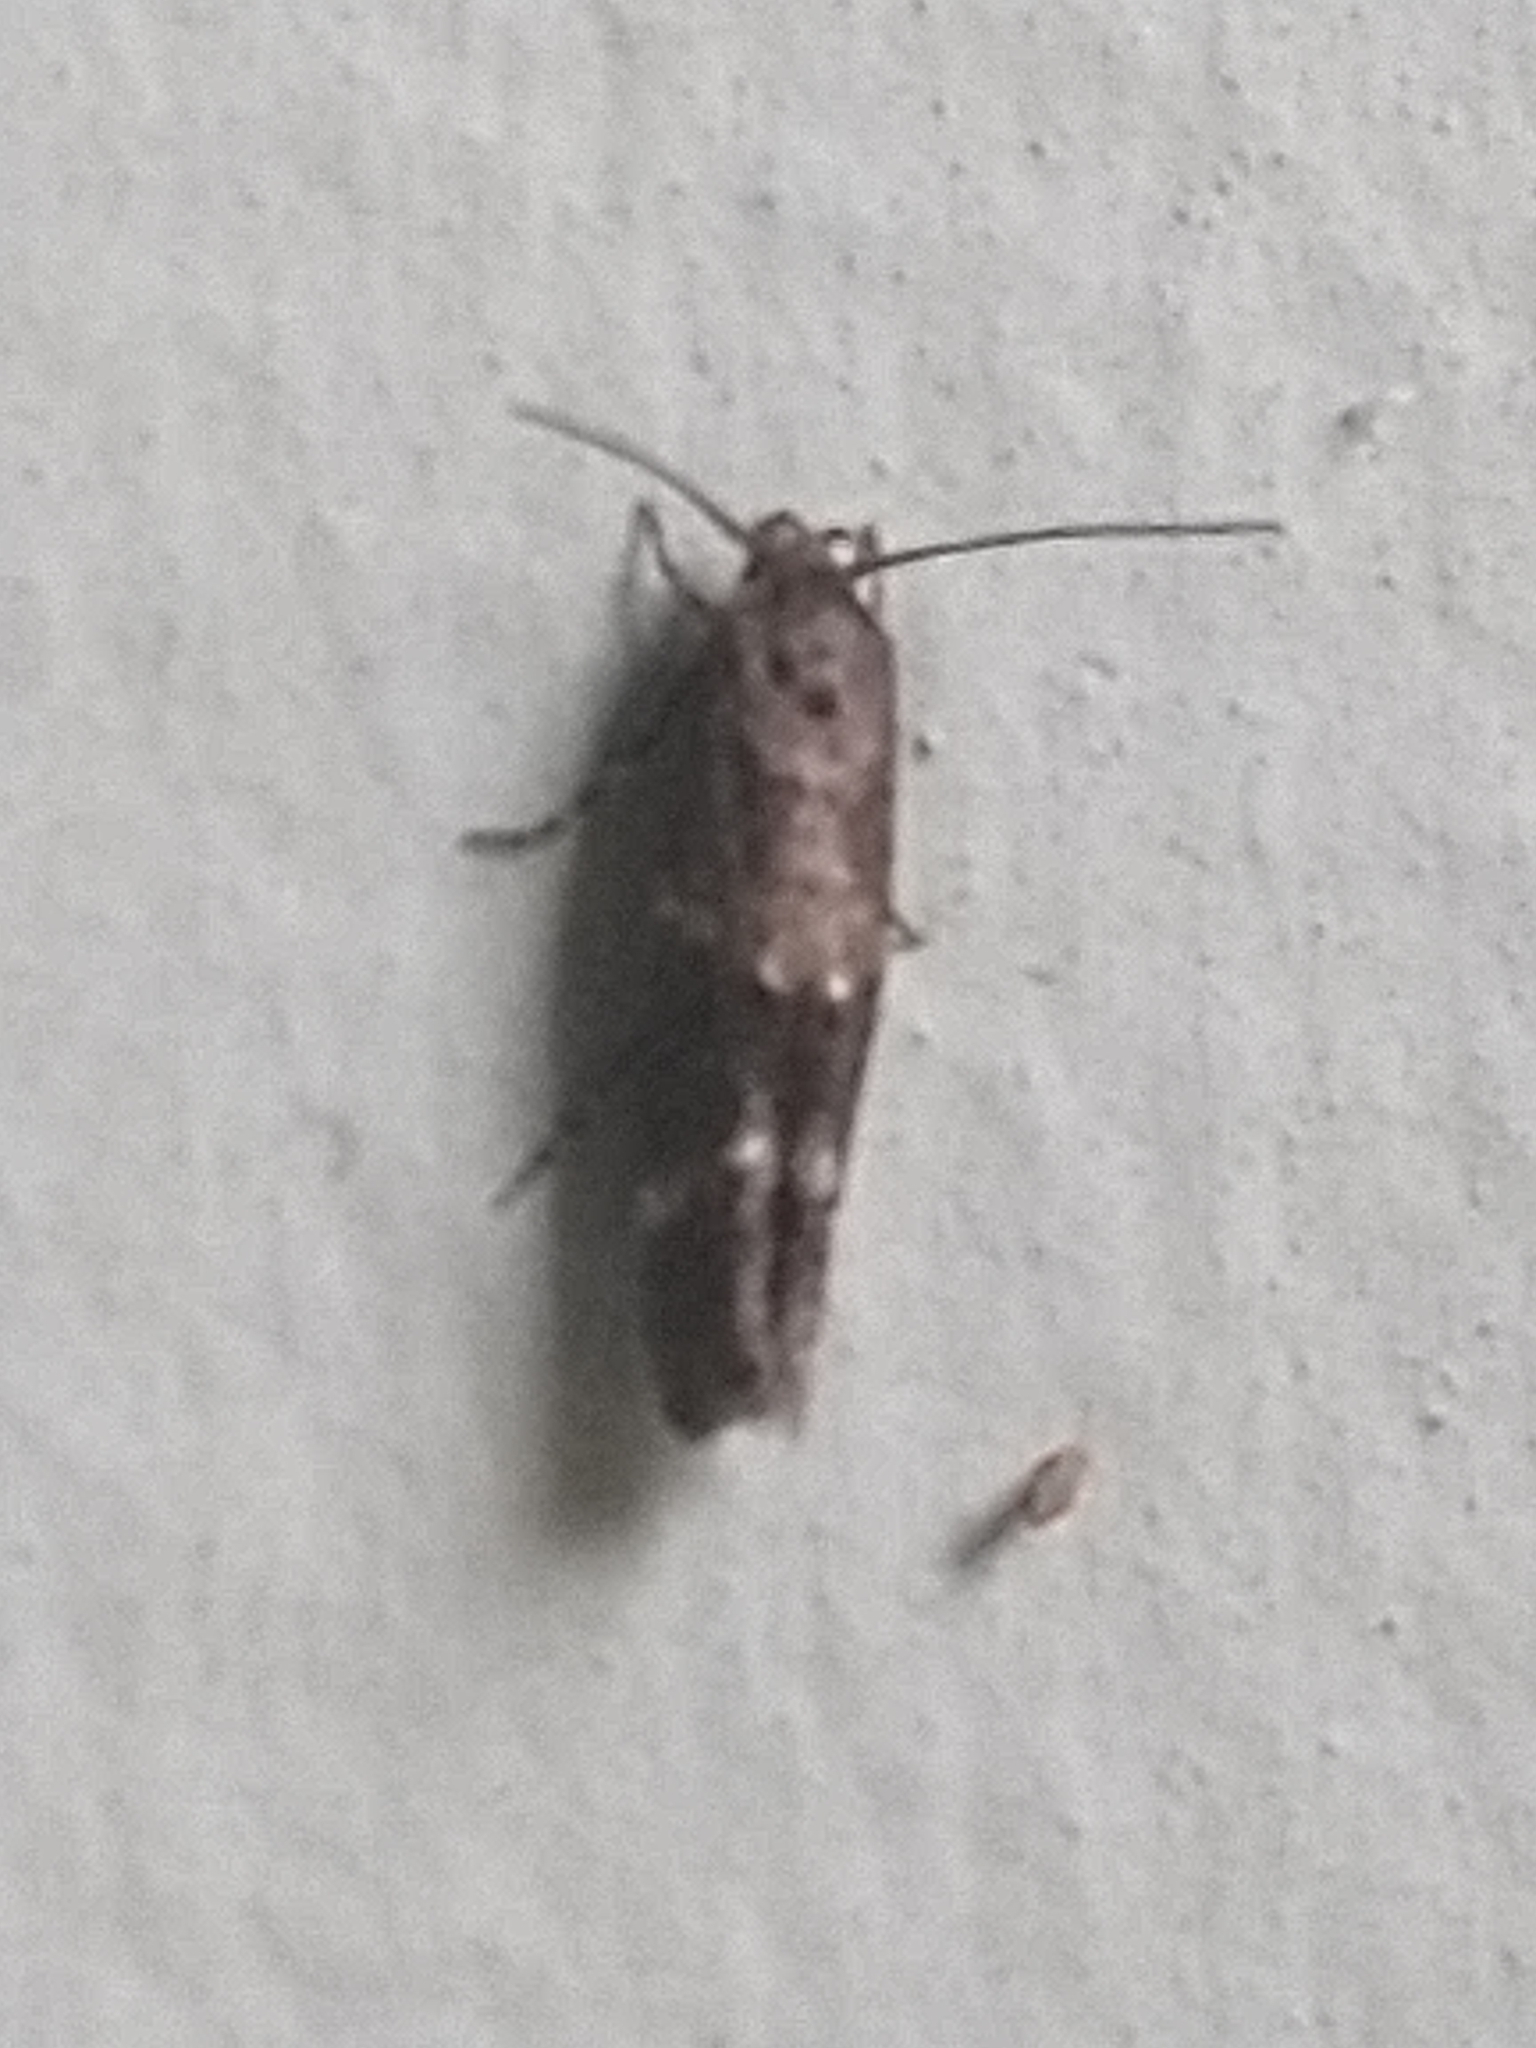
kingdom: Animalia
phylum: Arthropoda
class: Insecta
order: Lepidoptera
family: Momphidae
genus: Mompha
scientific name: Mompha subbistrigella
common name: Garden cosmet
